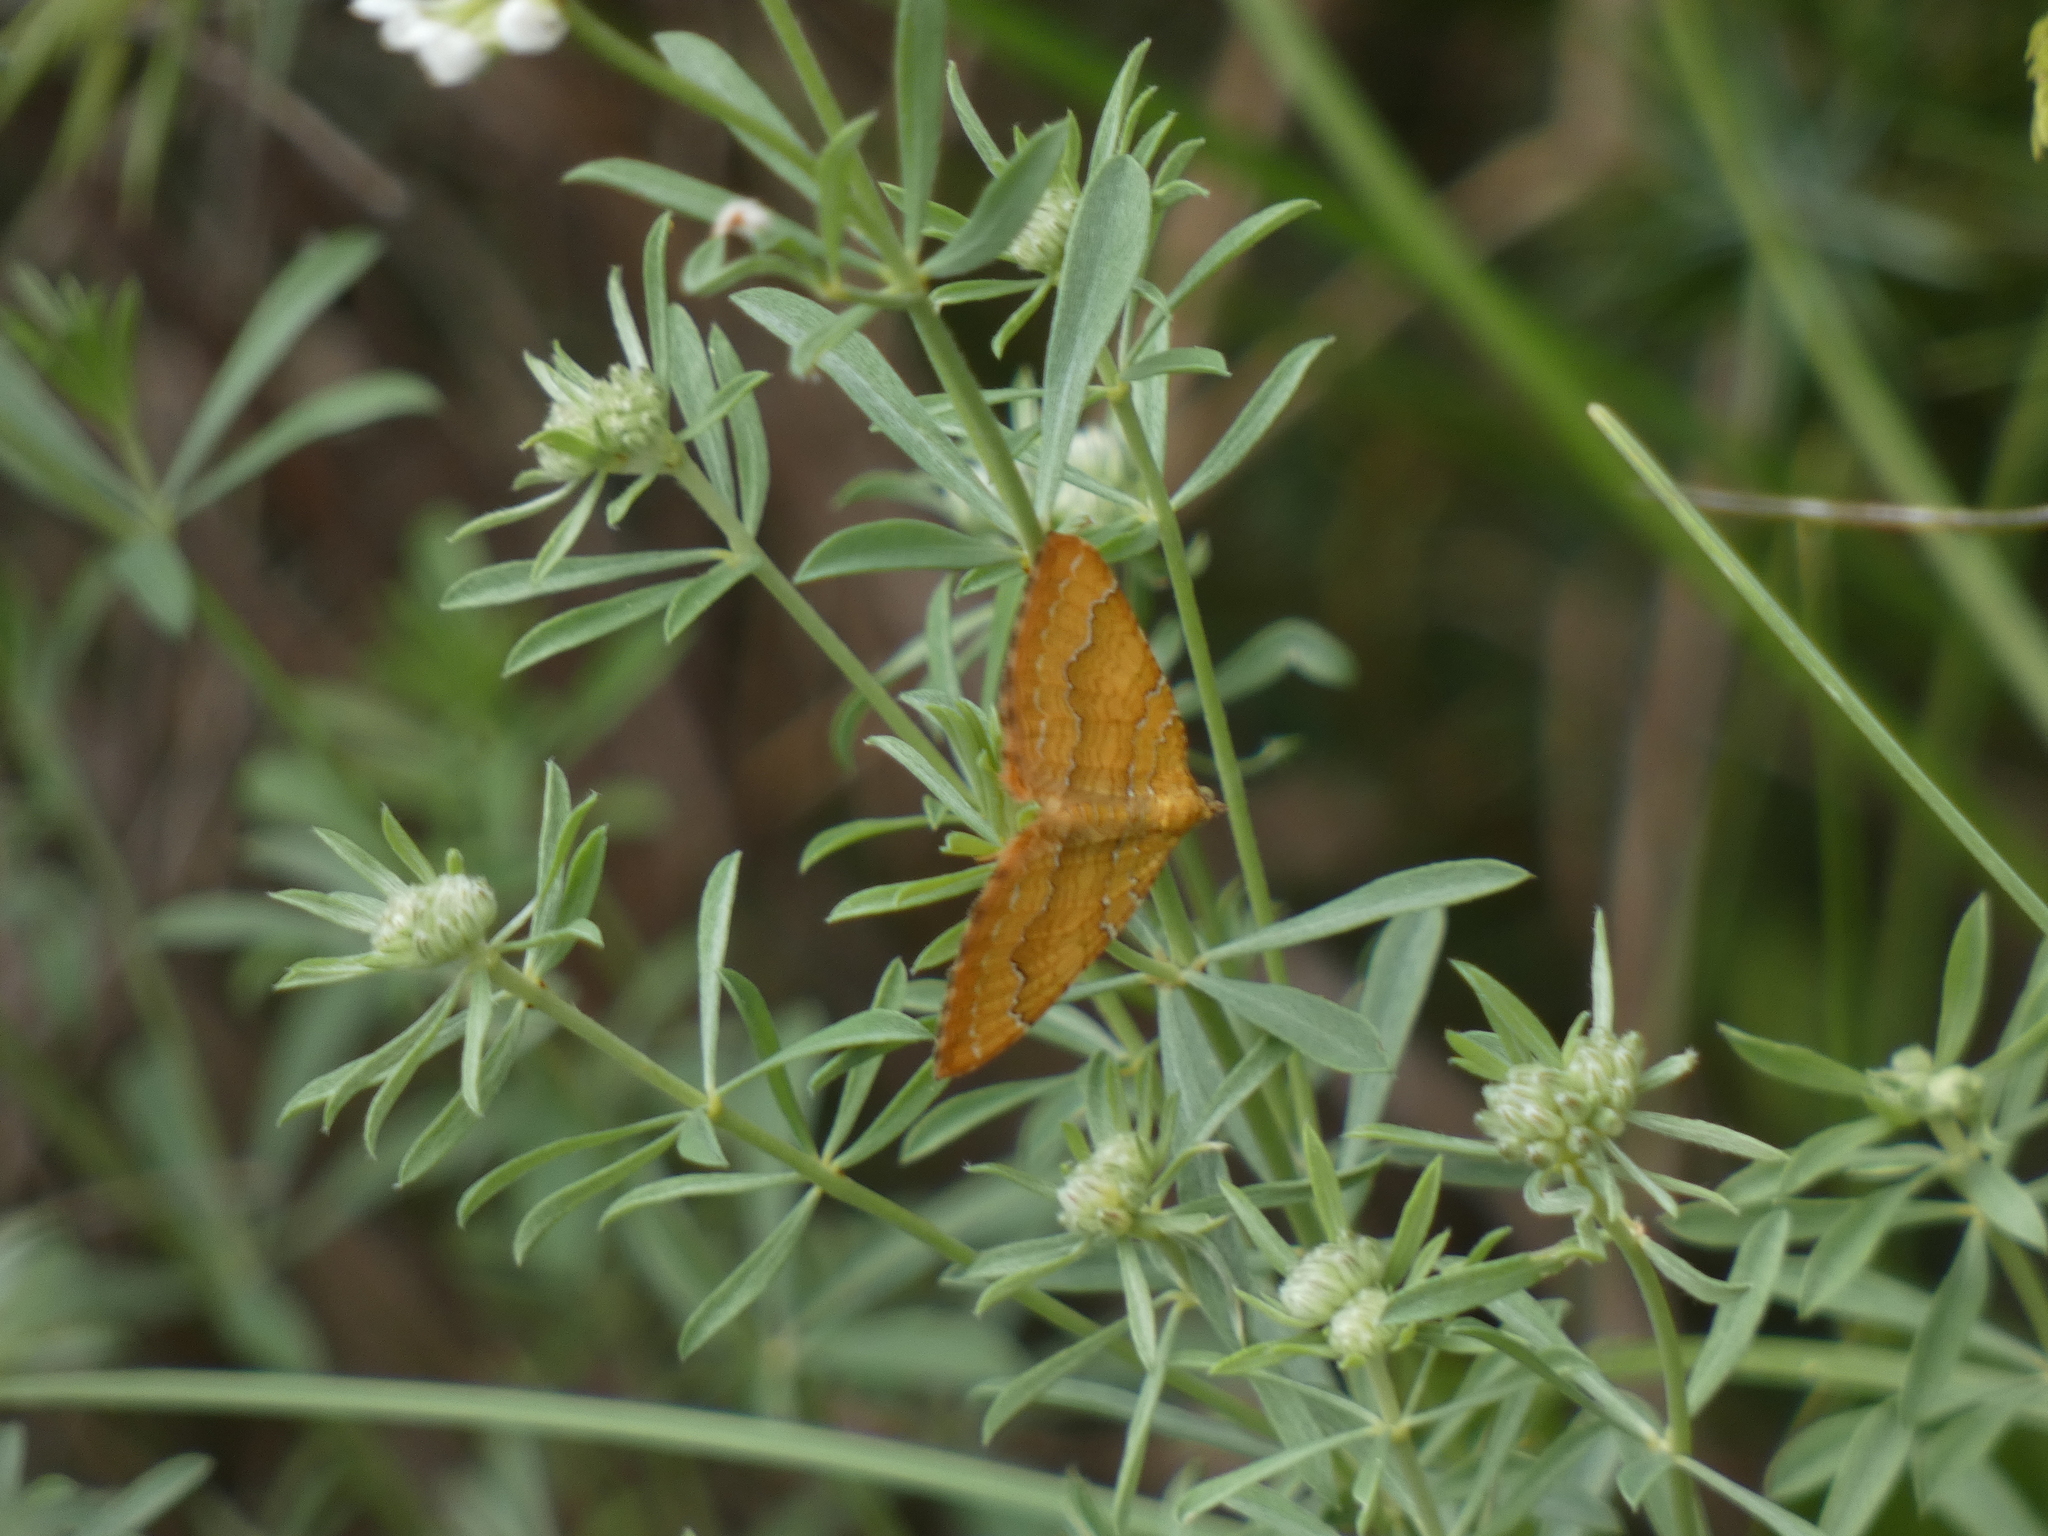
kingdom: Animalia
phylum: Arthropoda
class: Insecta
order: Lepidoptera
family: Geometridae
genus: Camptogramma
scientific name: Camptogramma bilineata
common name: Yellow shell
